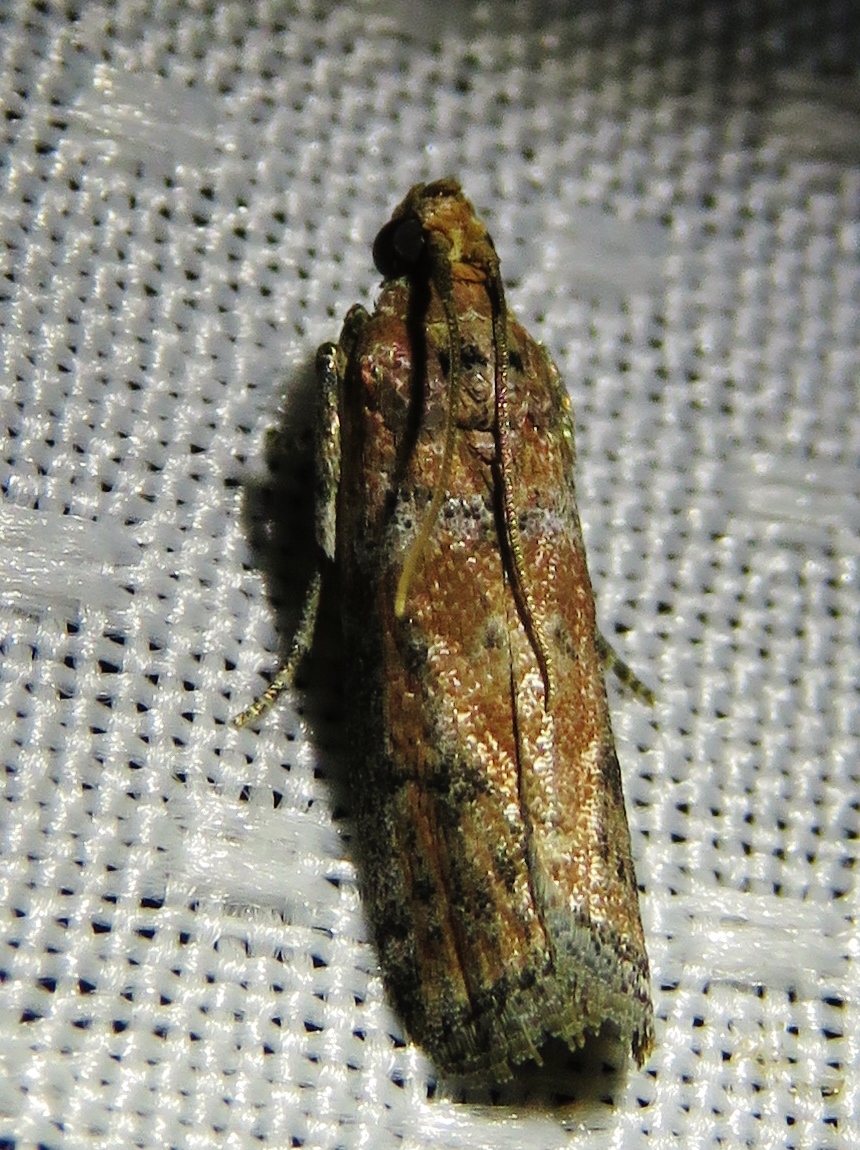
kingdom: Animalia
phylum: Arthropoda
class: Insecta
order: Lepidoptera
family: Pyralidae
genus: Sciota
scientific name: Sciota
